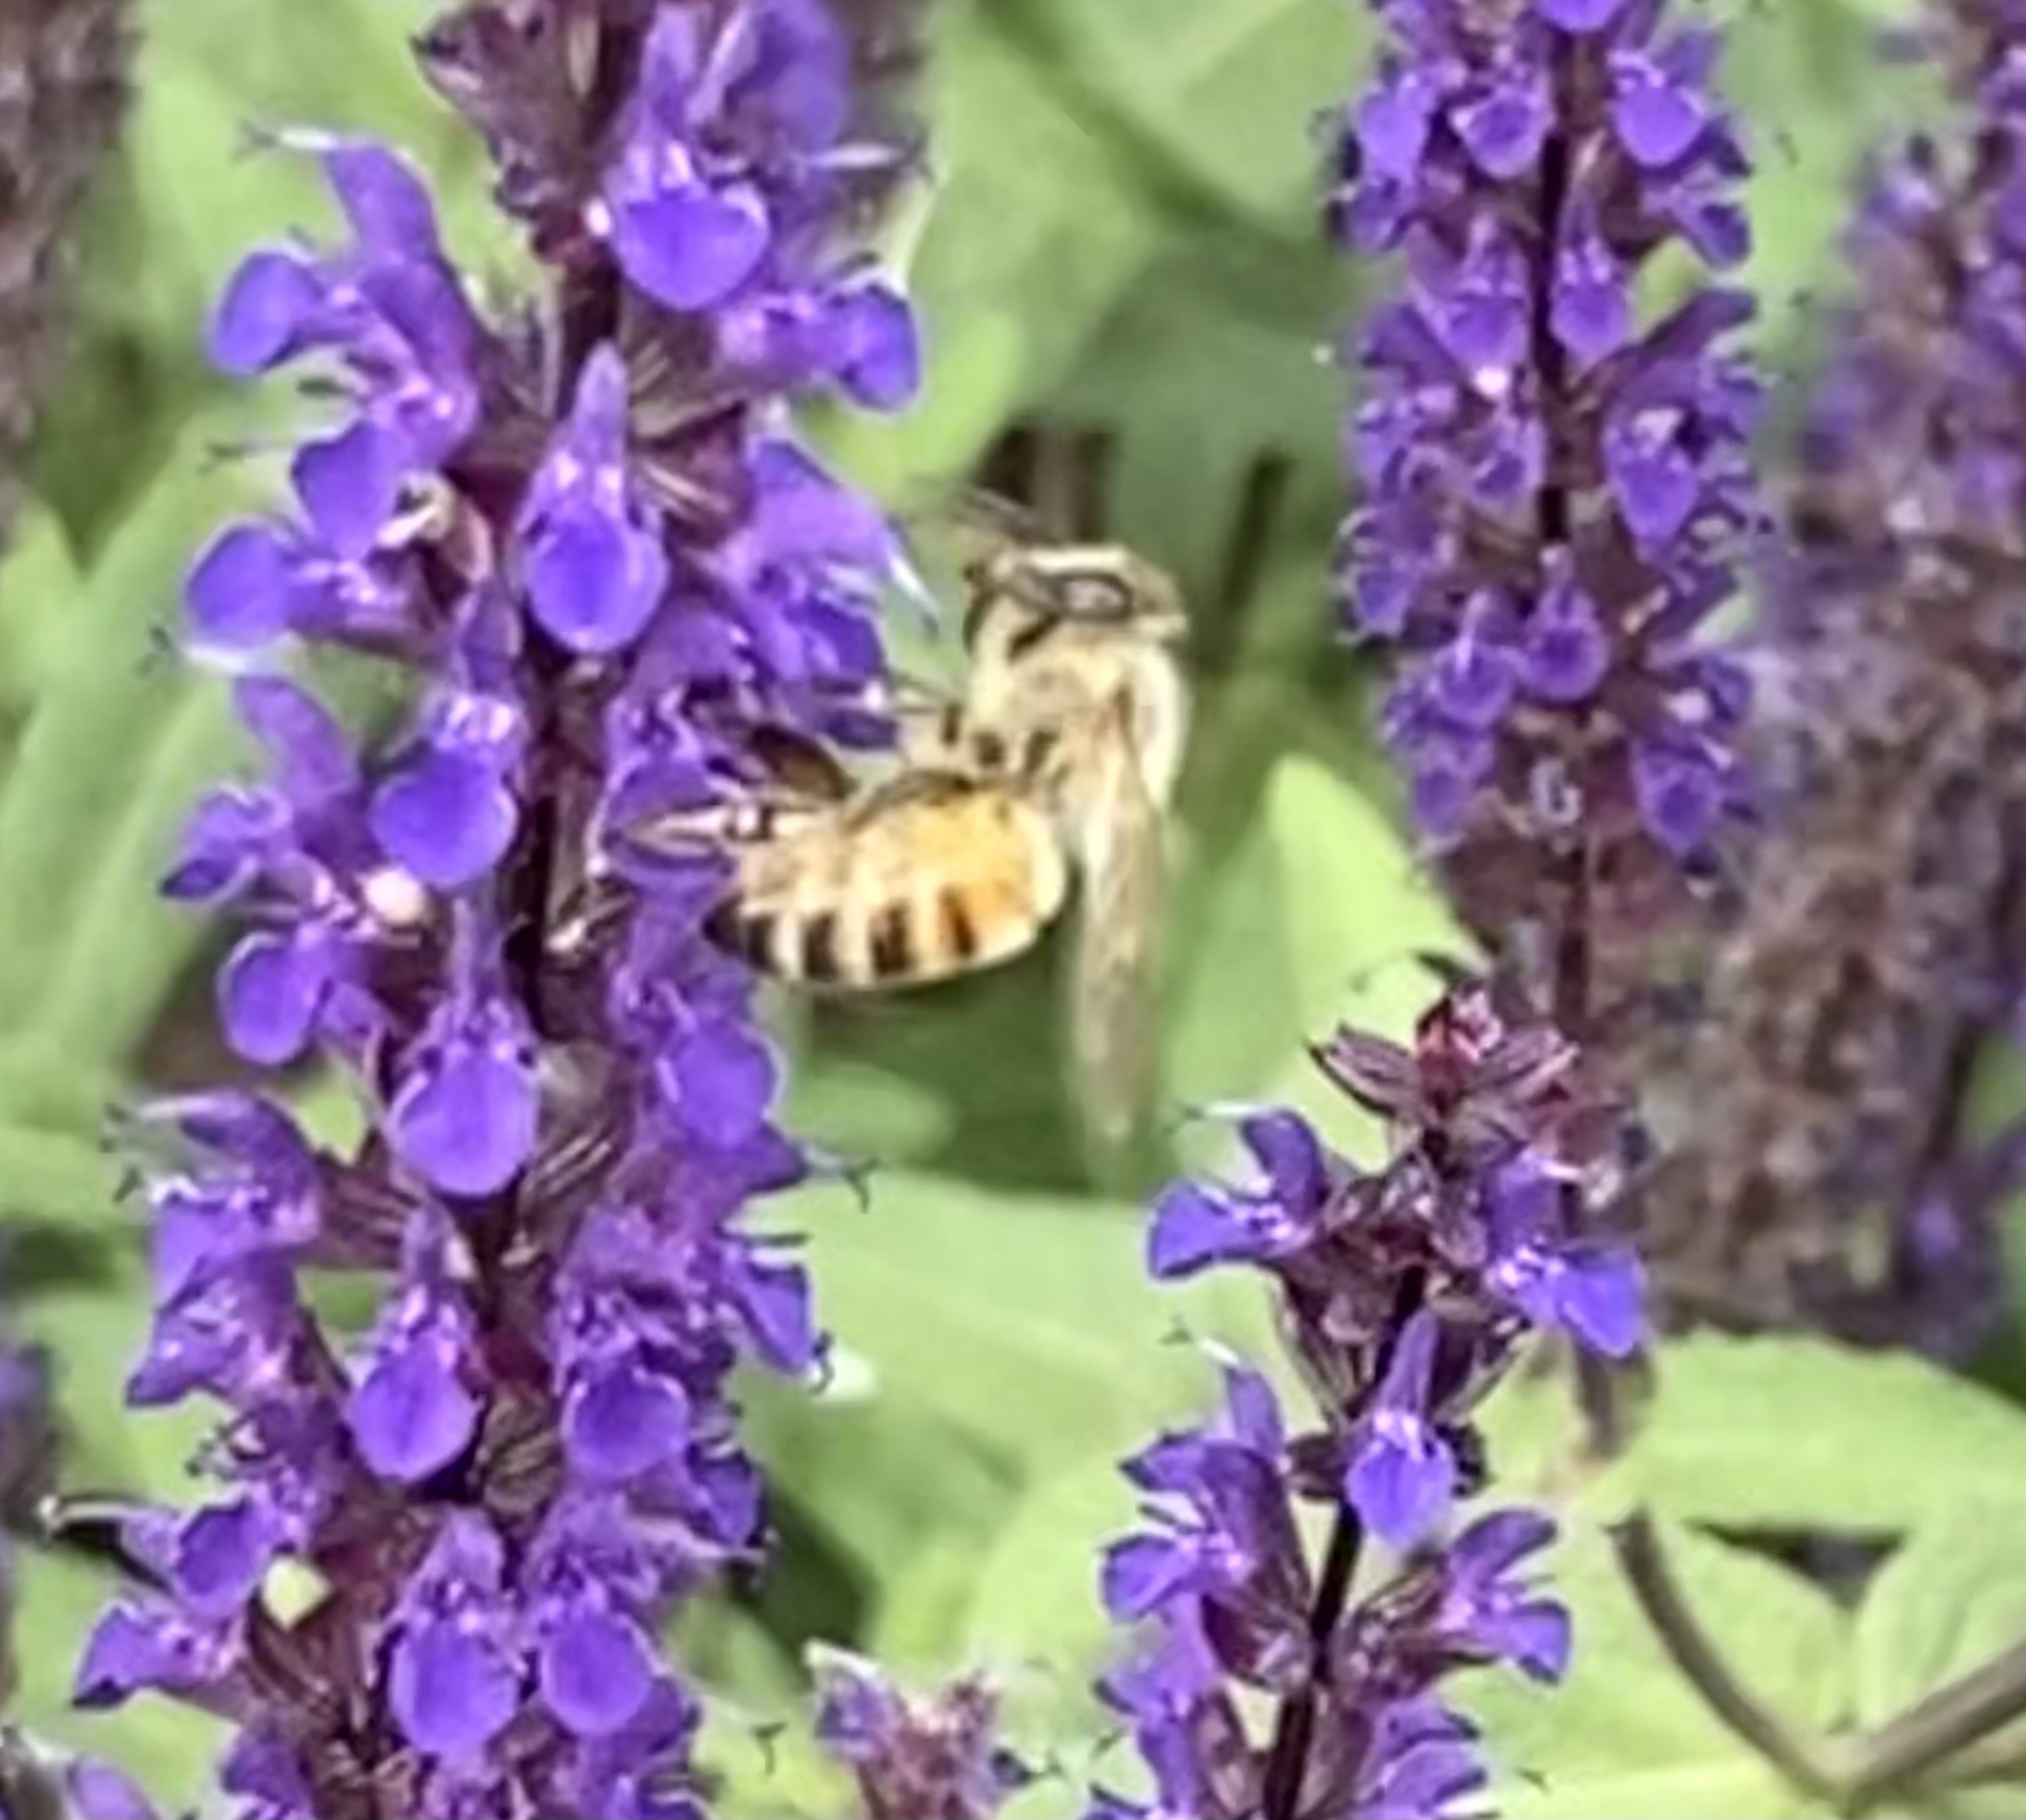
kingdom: Animalia
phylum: Arthropoda
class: Insecta
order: Hymenoptera
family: Apidae
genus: Apis
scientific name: Apis mellifera
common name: Honey bee
